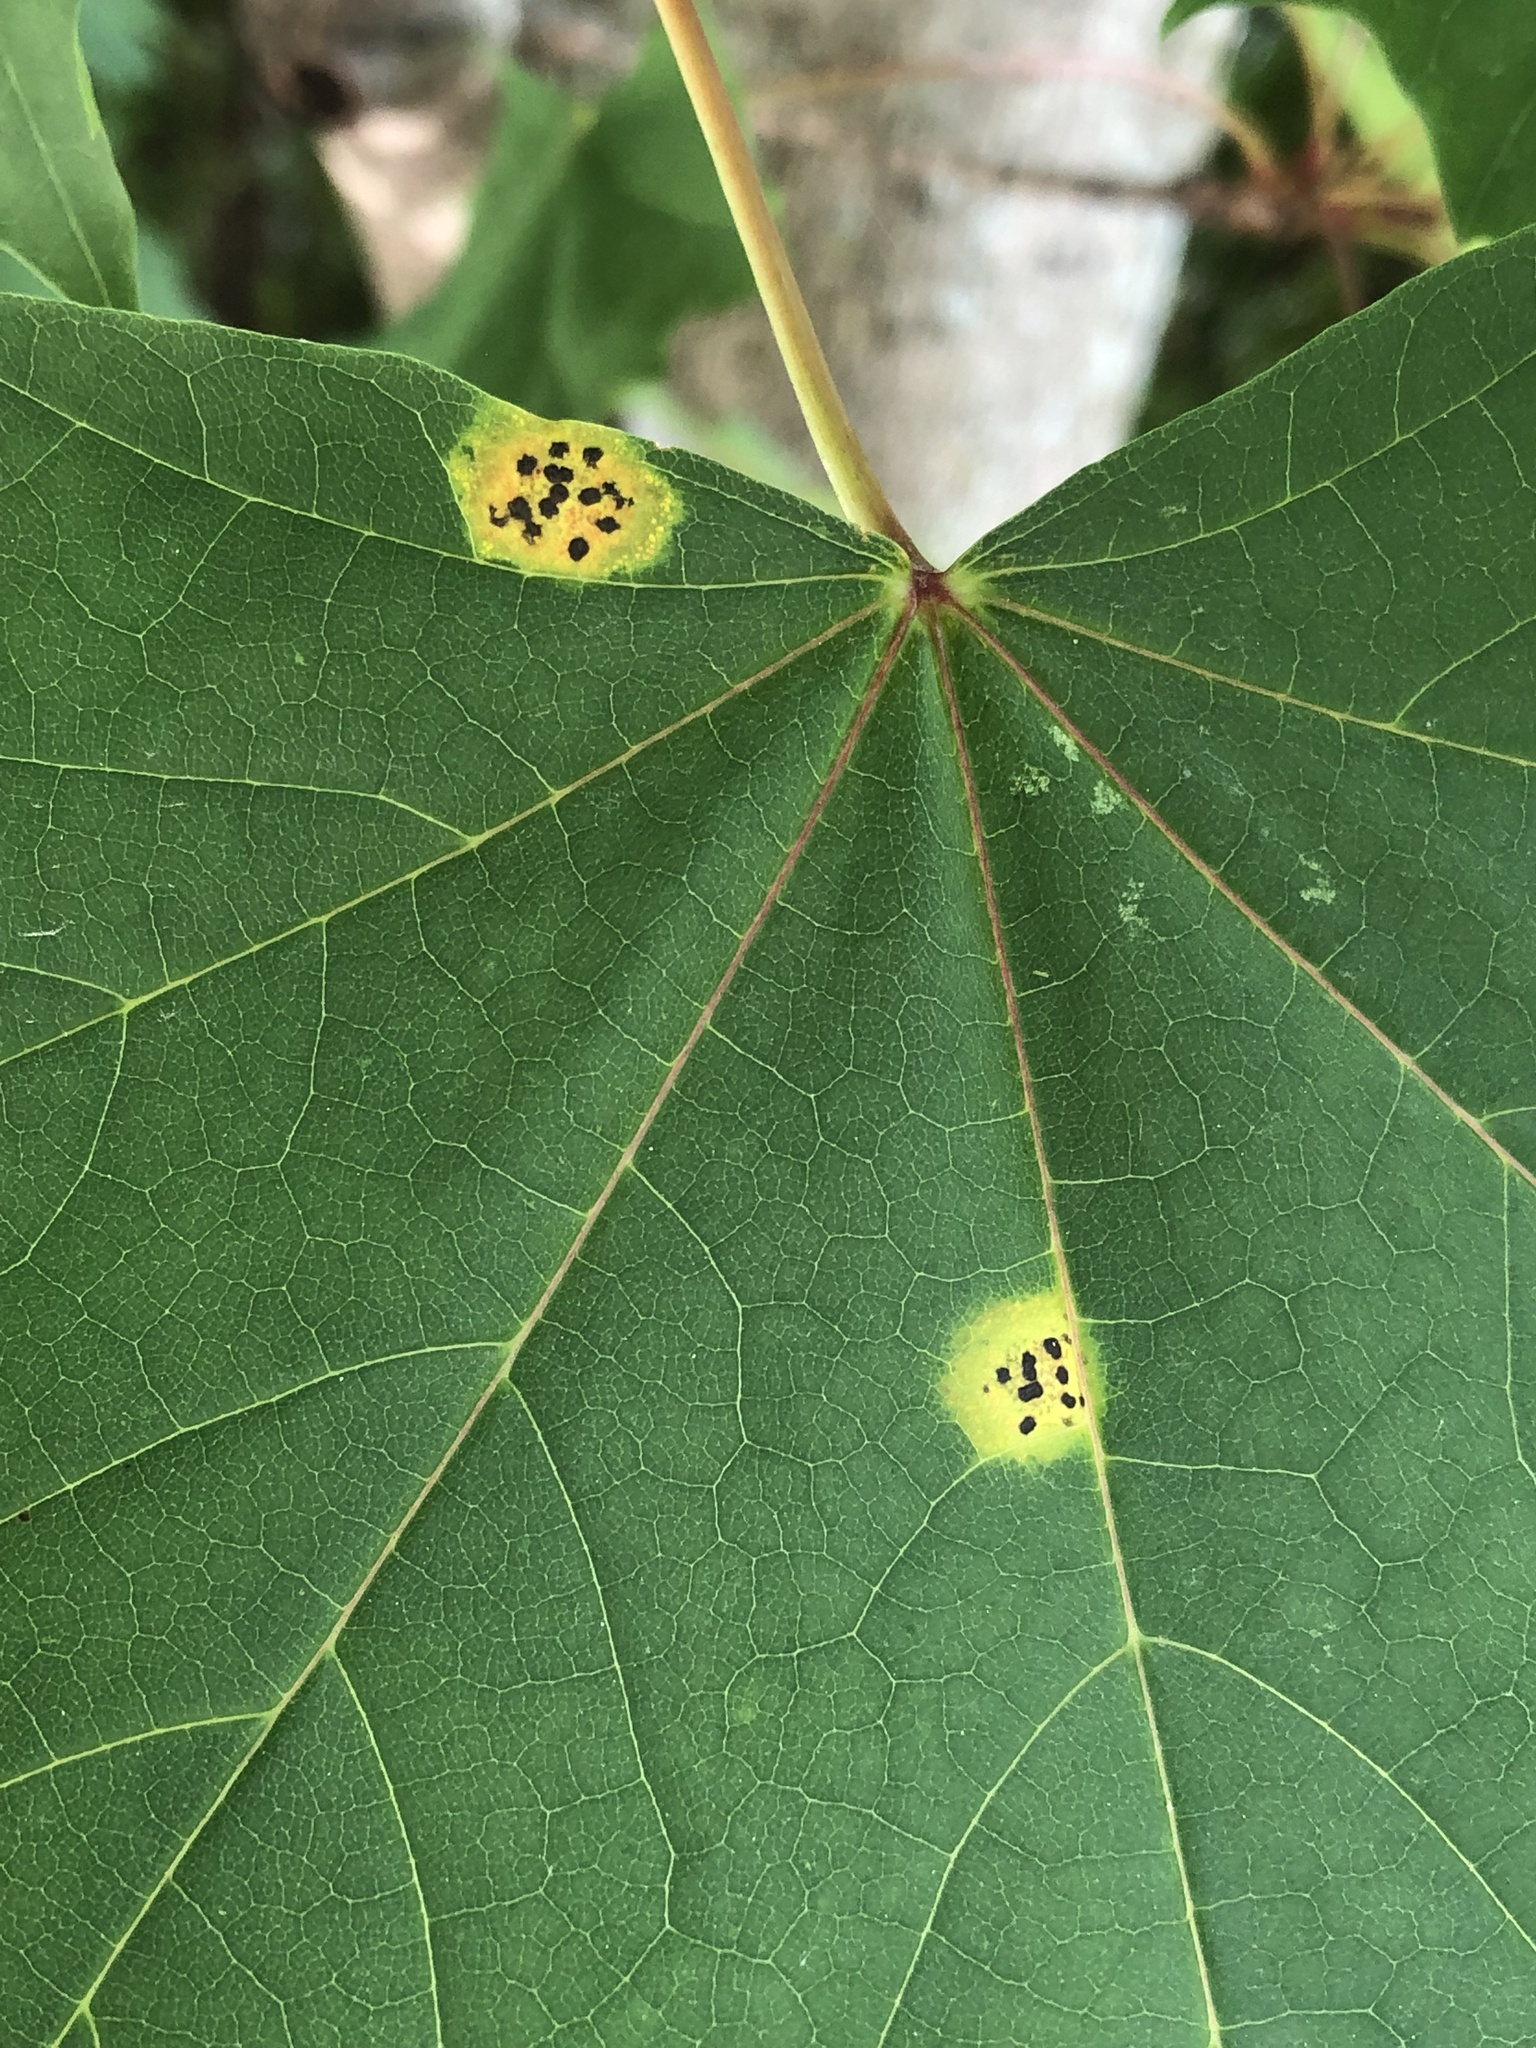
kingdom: Fungi
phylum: Ascomycota
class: Leotiomycetes
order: Rhytismatales
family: Rhytismataceae
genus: Rhytisma
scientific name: Rhytisma acerinum
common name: European tar spot
